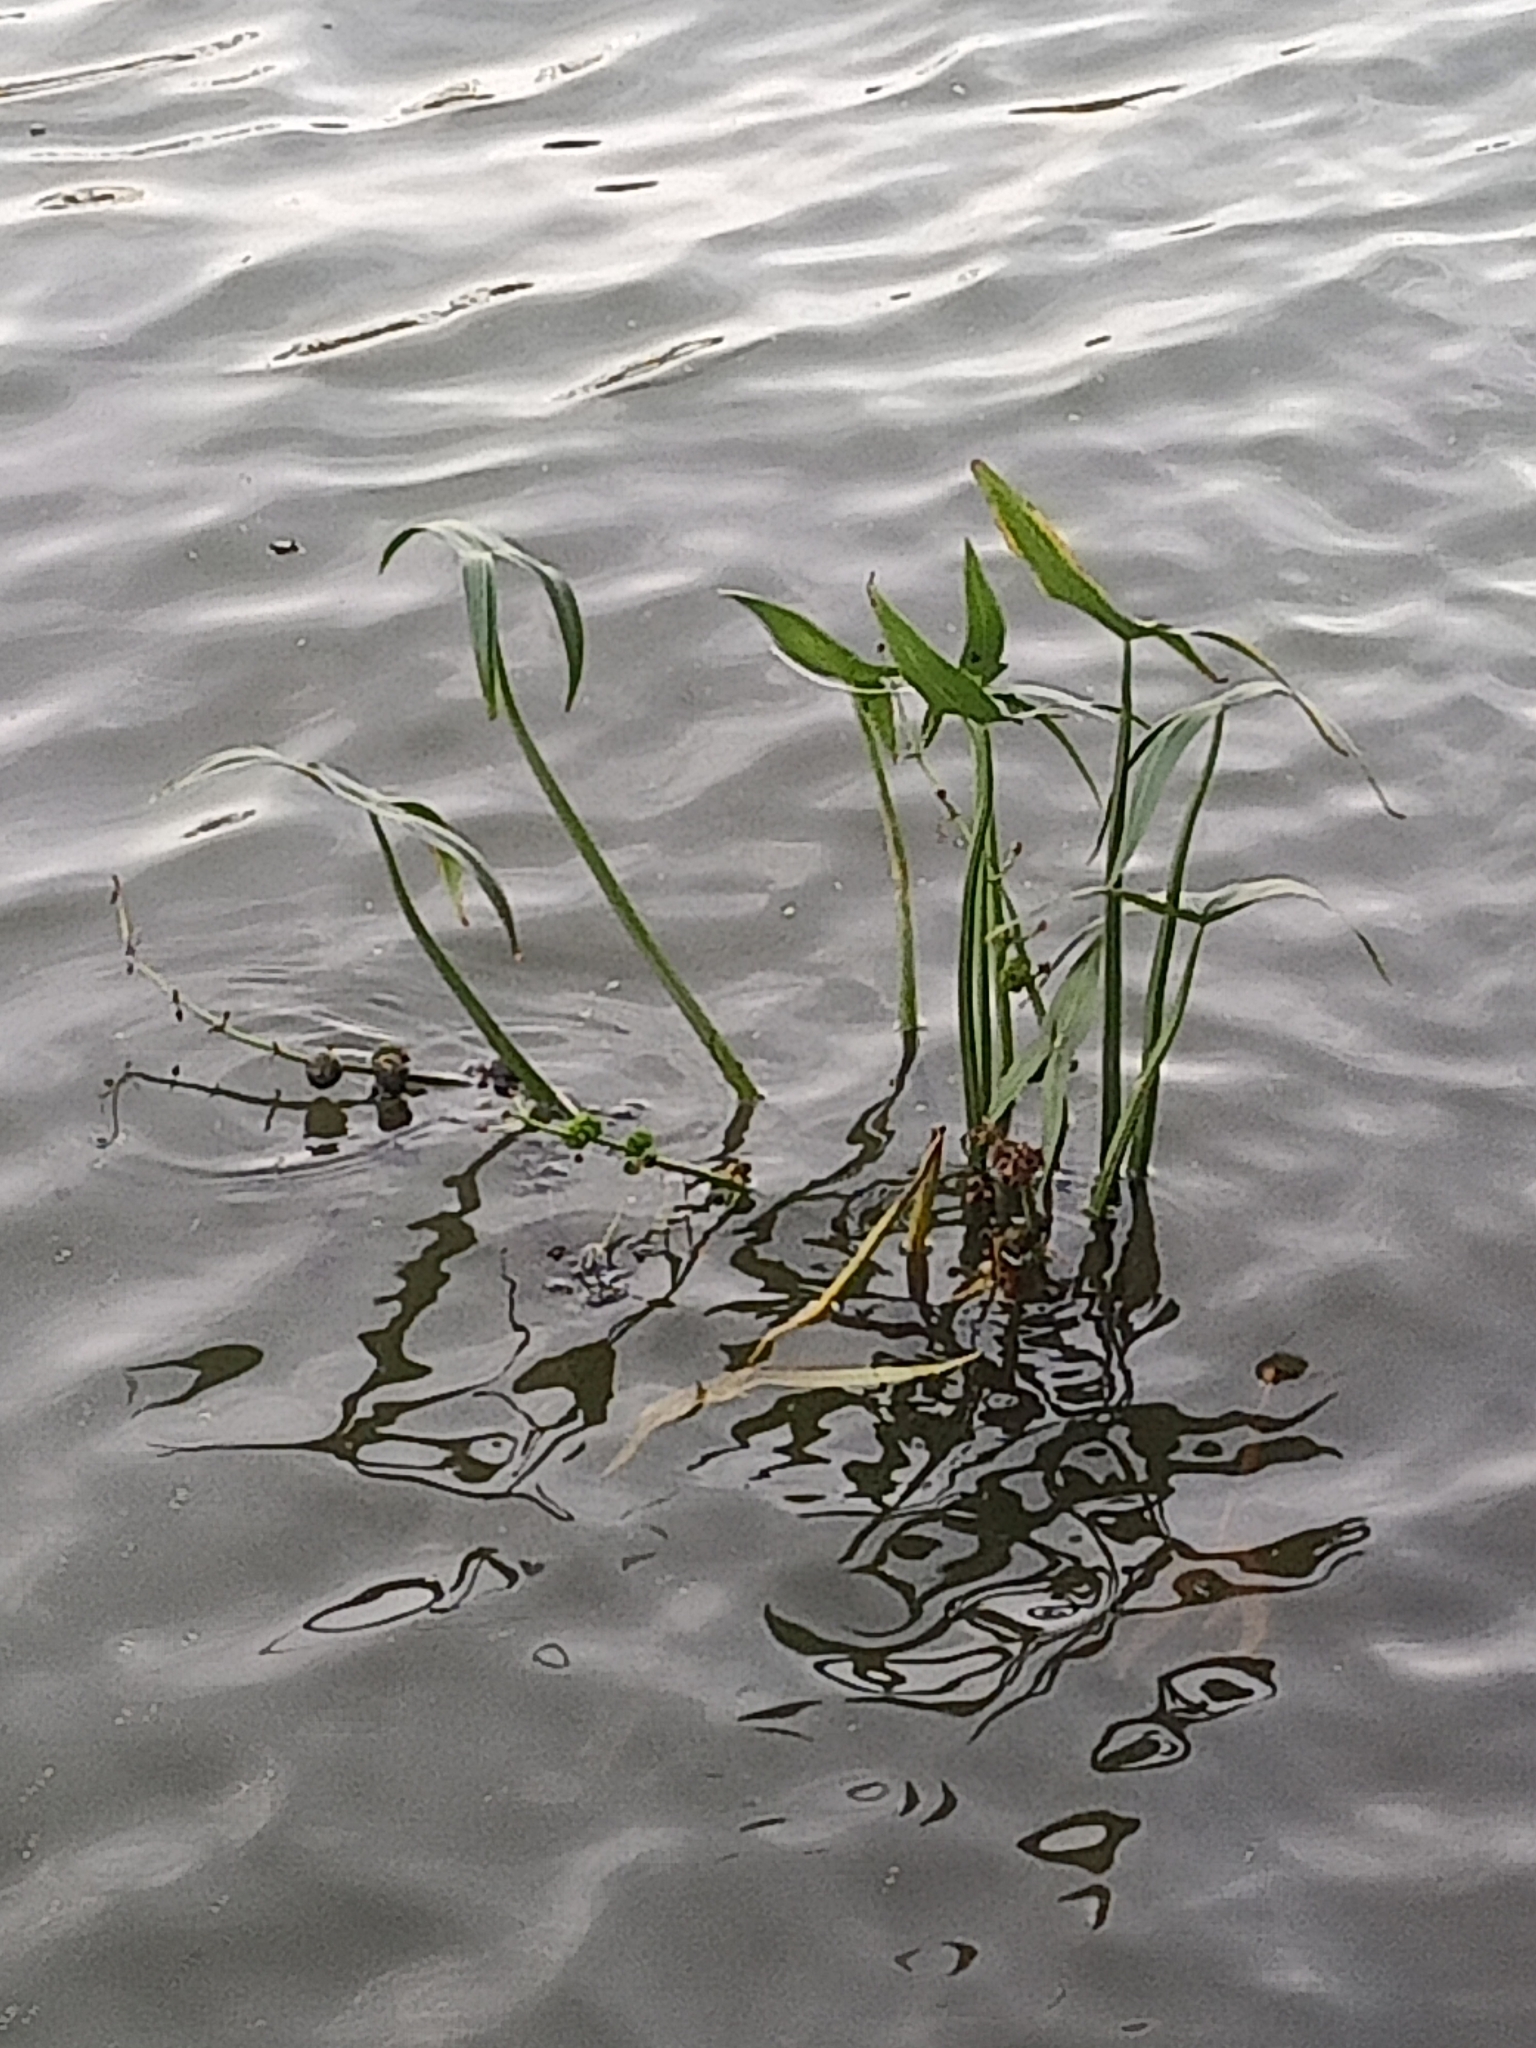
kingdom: Plantae
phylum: Tracheophyta
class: Liliopsida
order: Alismatales
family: Alismataceae
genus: Sagittaria
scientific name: Sagittaria sagittifolia
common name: Arrowhead
